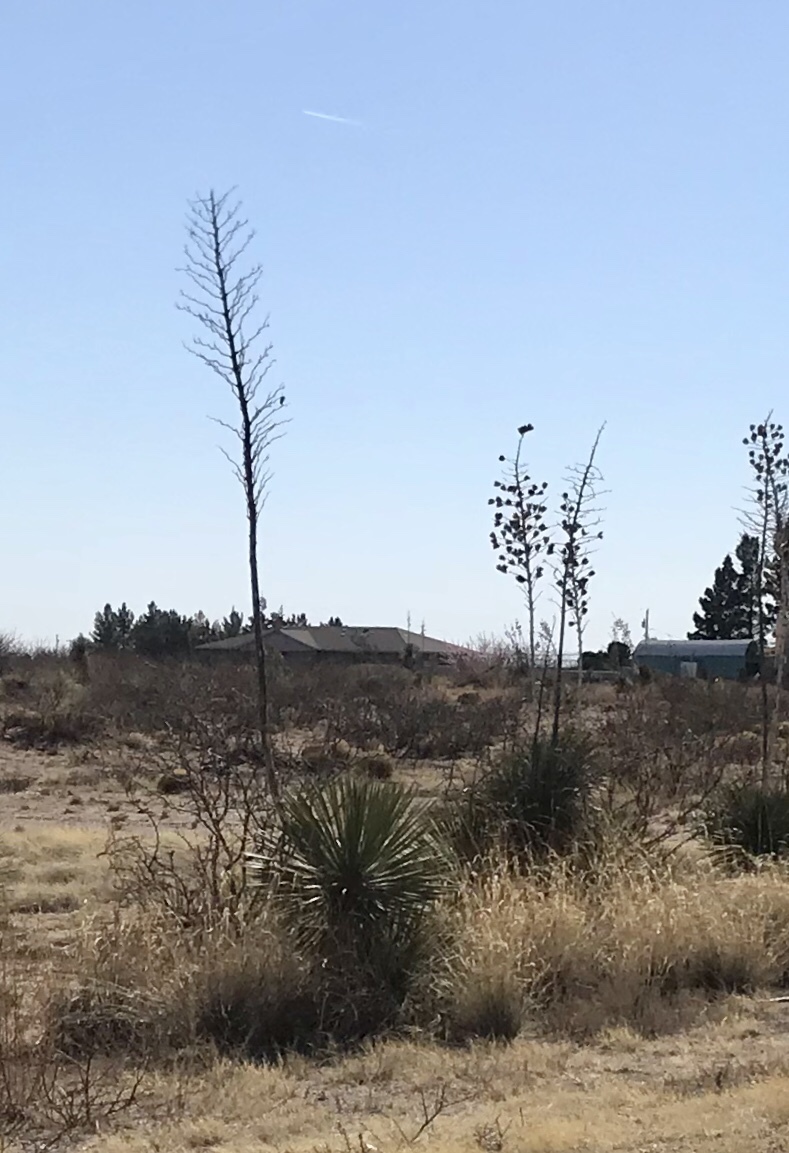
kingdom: Plantae
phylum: Tracheophyta
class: Liliopsida
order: Asparagales
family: Asparagaceae
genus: Yucca
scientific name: Yucca elata
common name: Palmella
